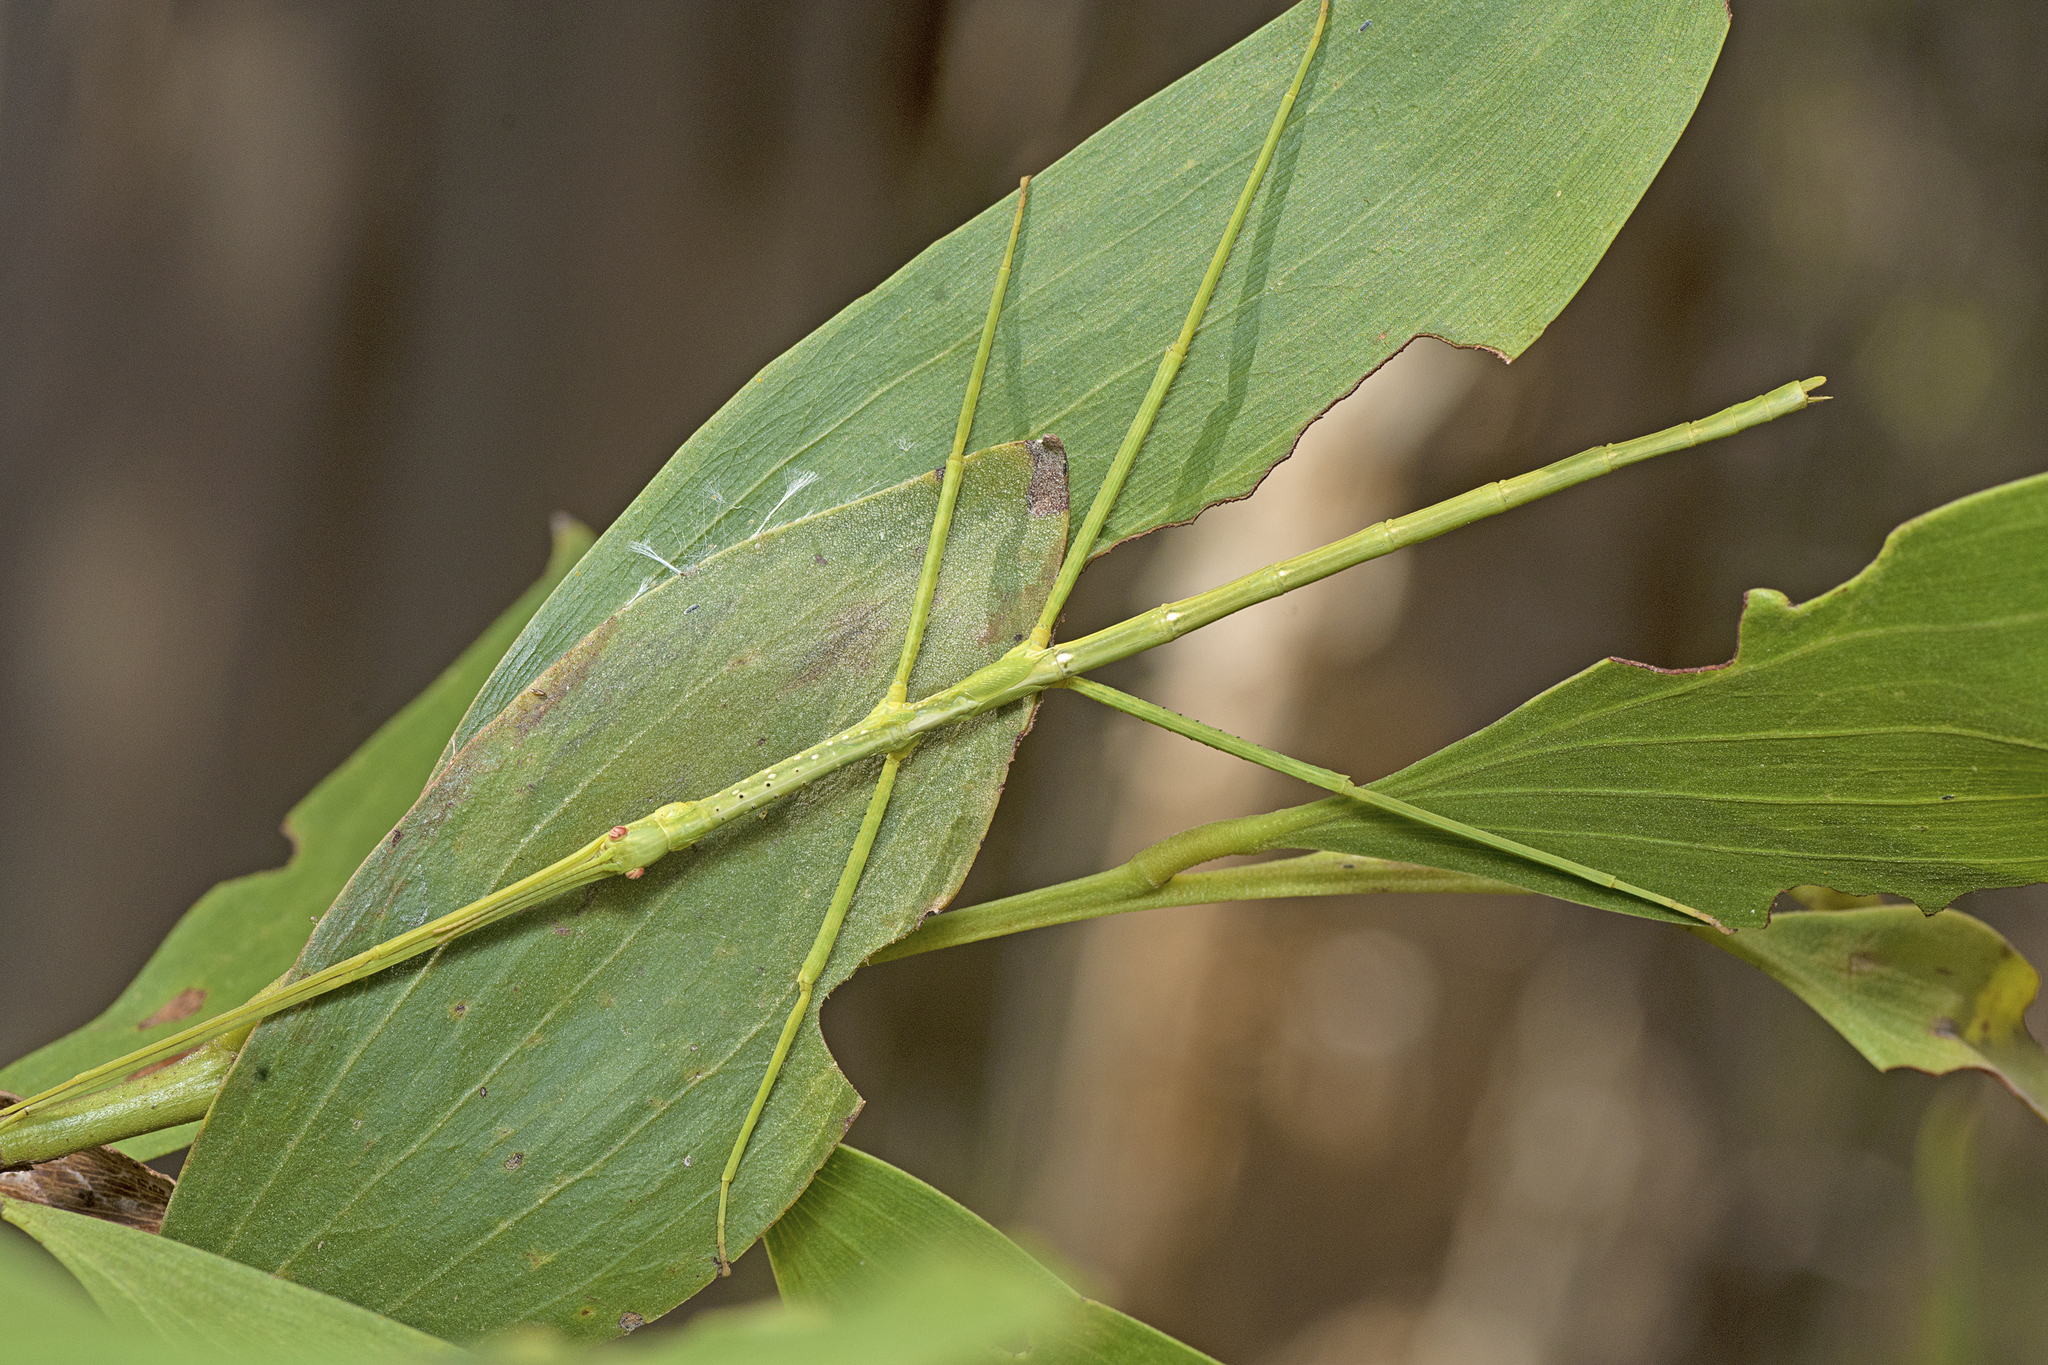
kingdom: Animalia
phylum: Arthropoda
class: Insecta
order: Phasmida
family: Phasmatidae
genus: Anchiale
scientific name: Anchiale austrotessulata
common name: Tessellated stick-insect
